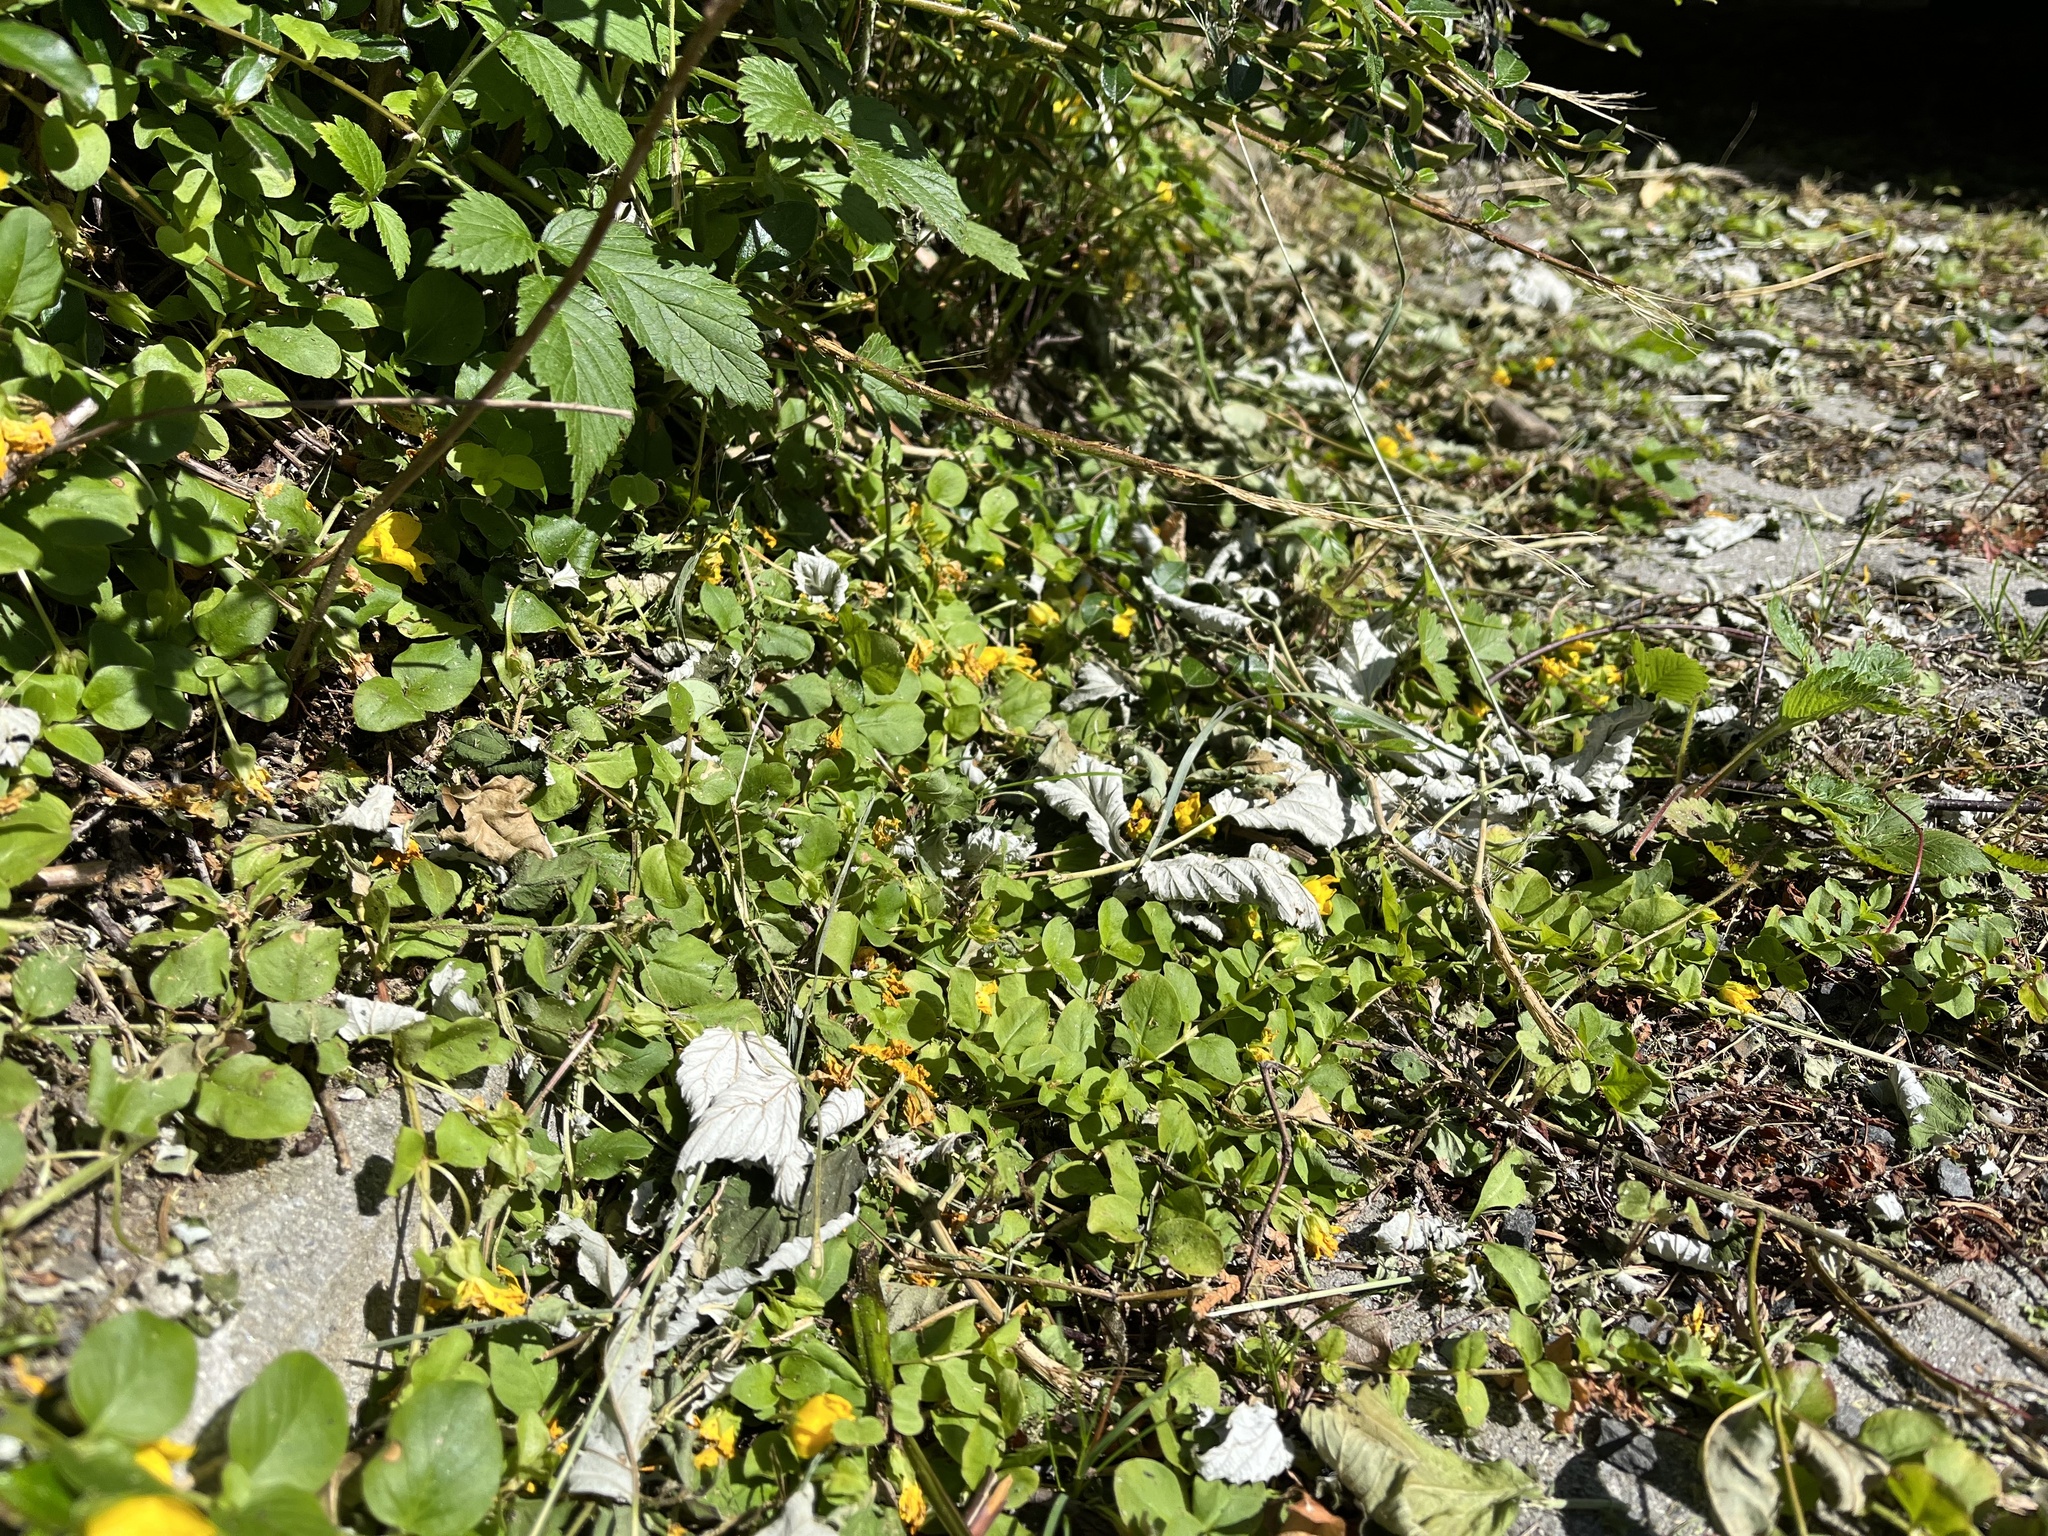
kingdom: Plantae
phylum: Tracheophyta
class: Magnoliopsida
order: Ericales
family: Primulaceae
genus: Lysimachia
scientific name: Lysimachia nummularia
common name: Moneywort
